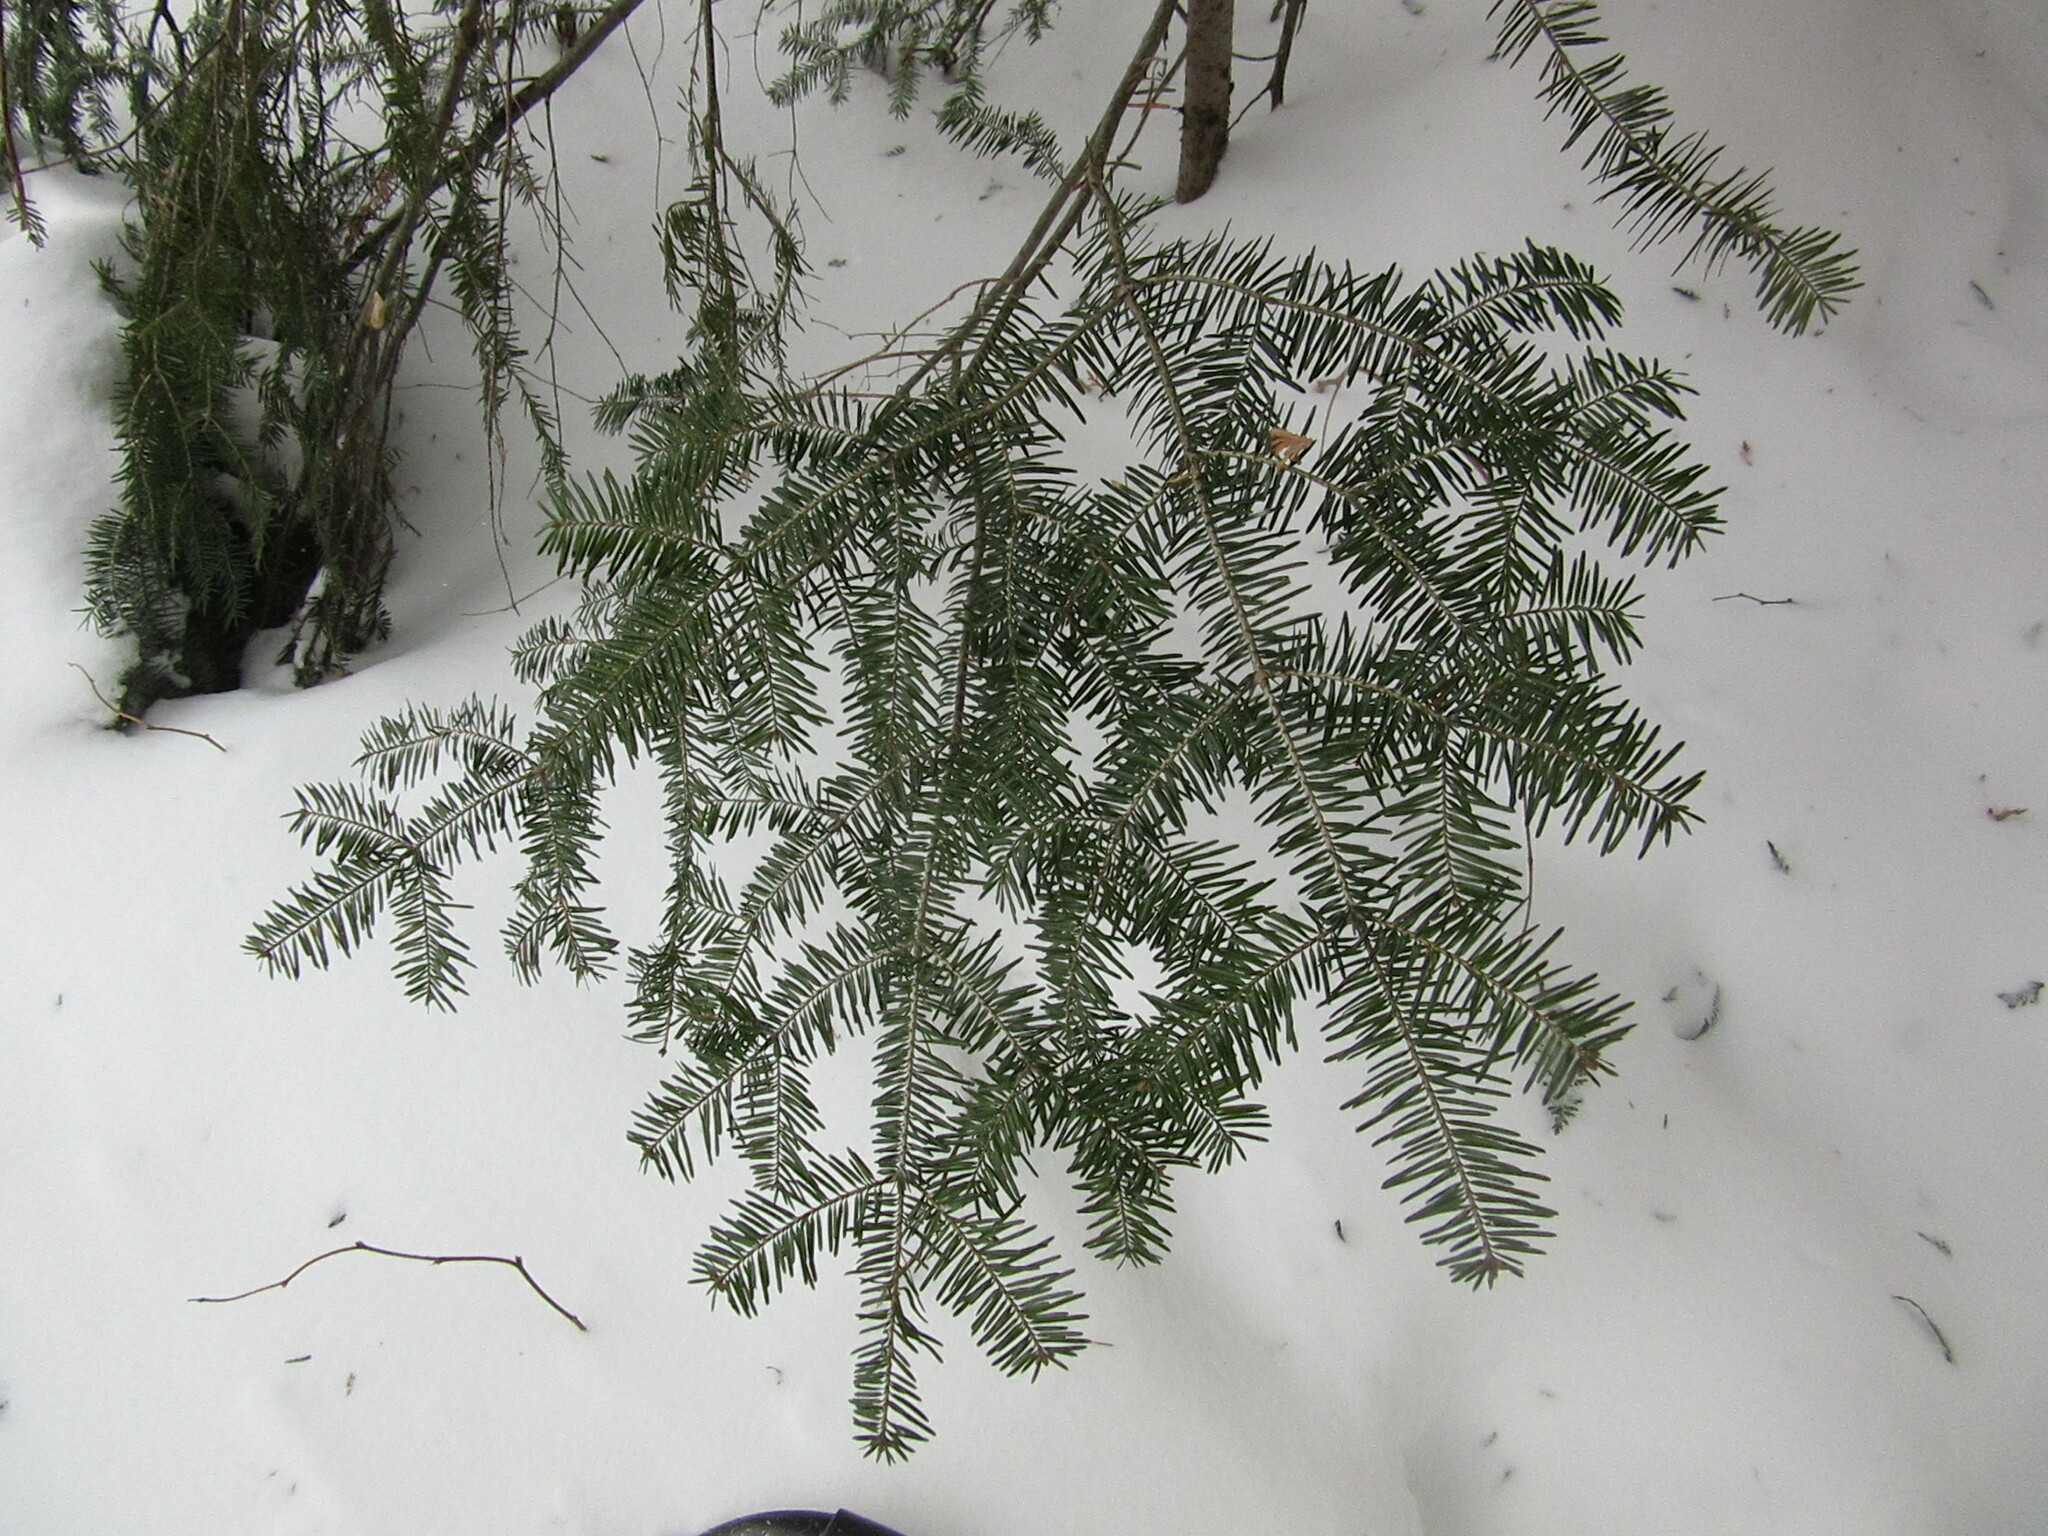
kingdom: Plantae
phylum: Tracheophyta
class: Pinopsida
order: Pinales
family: Pinaceae
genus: Abies
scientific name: Abies balsamea
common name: Balsam fir
